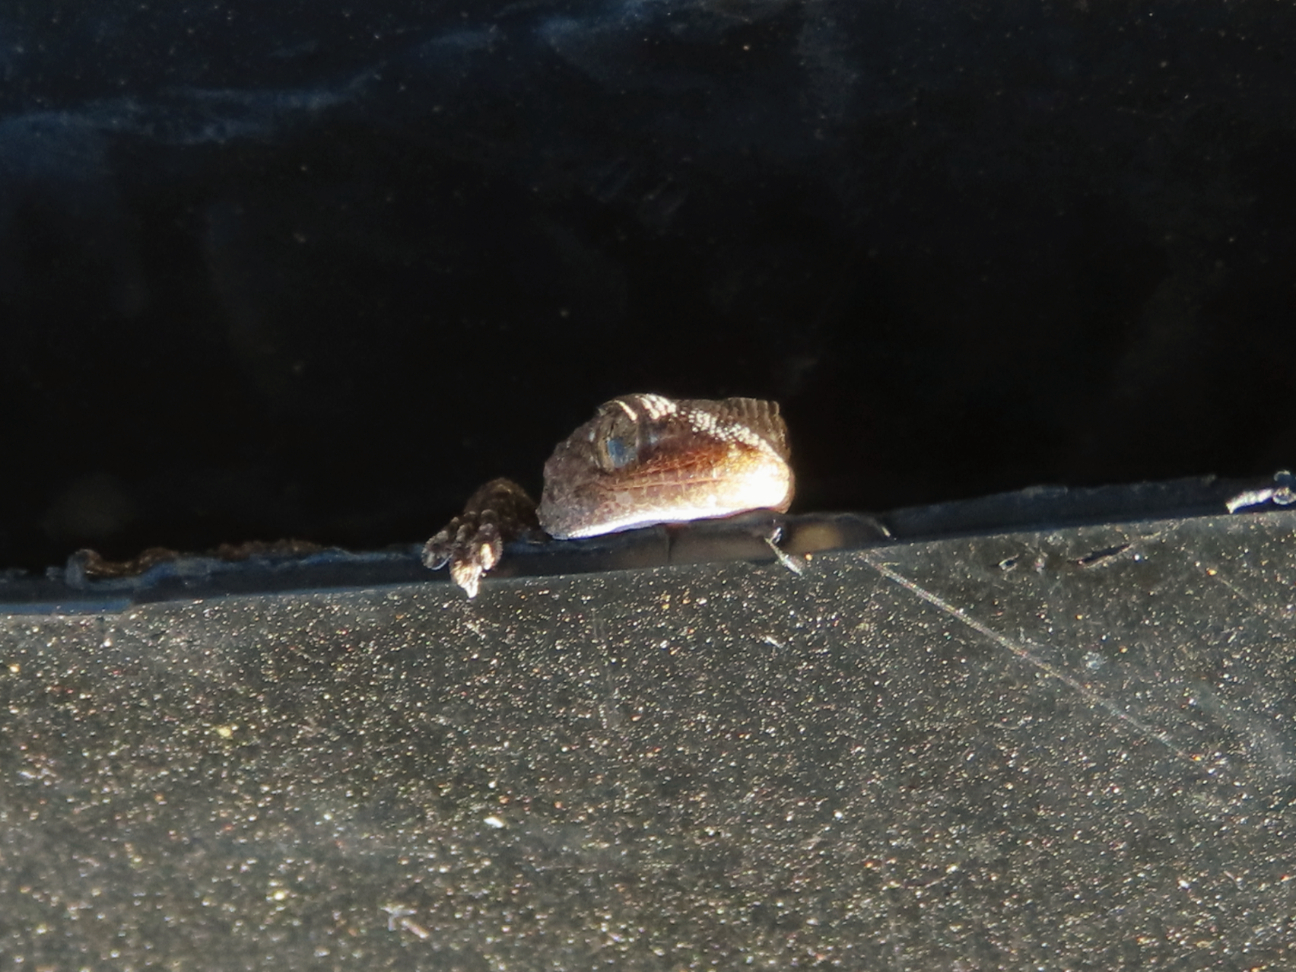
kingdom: Animalia
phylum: Chordata
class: Squamata
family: Phyllodactylidae
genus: Tarentola
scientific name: Tarentola mauritanica
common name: Moorish gecko
